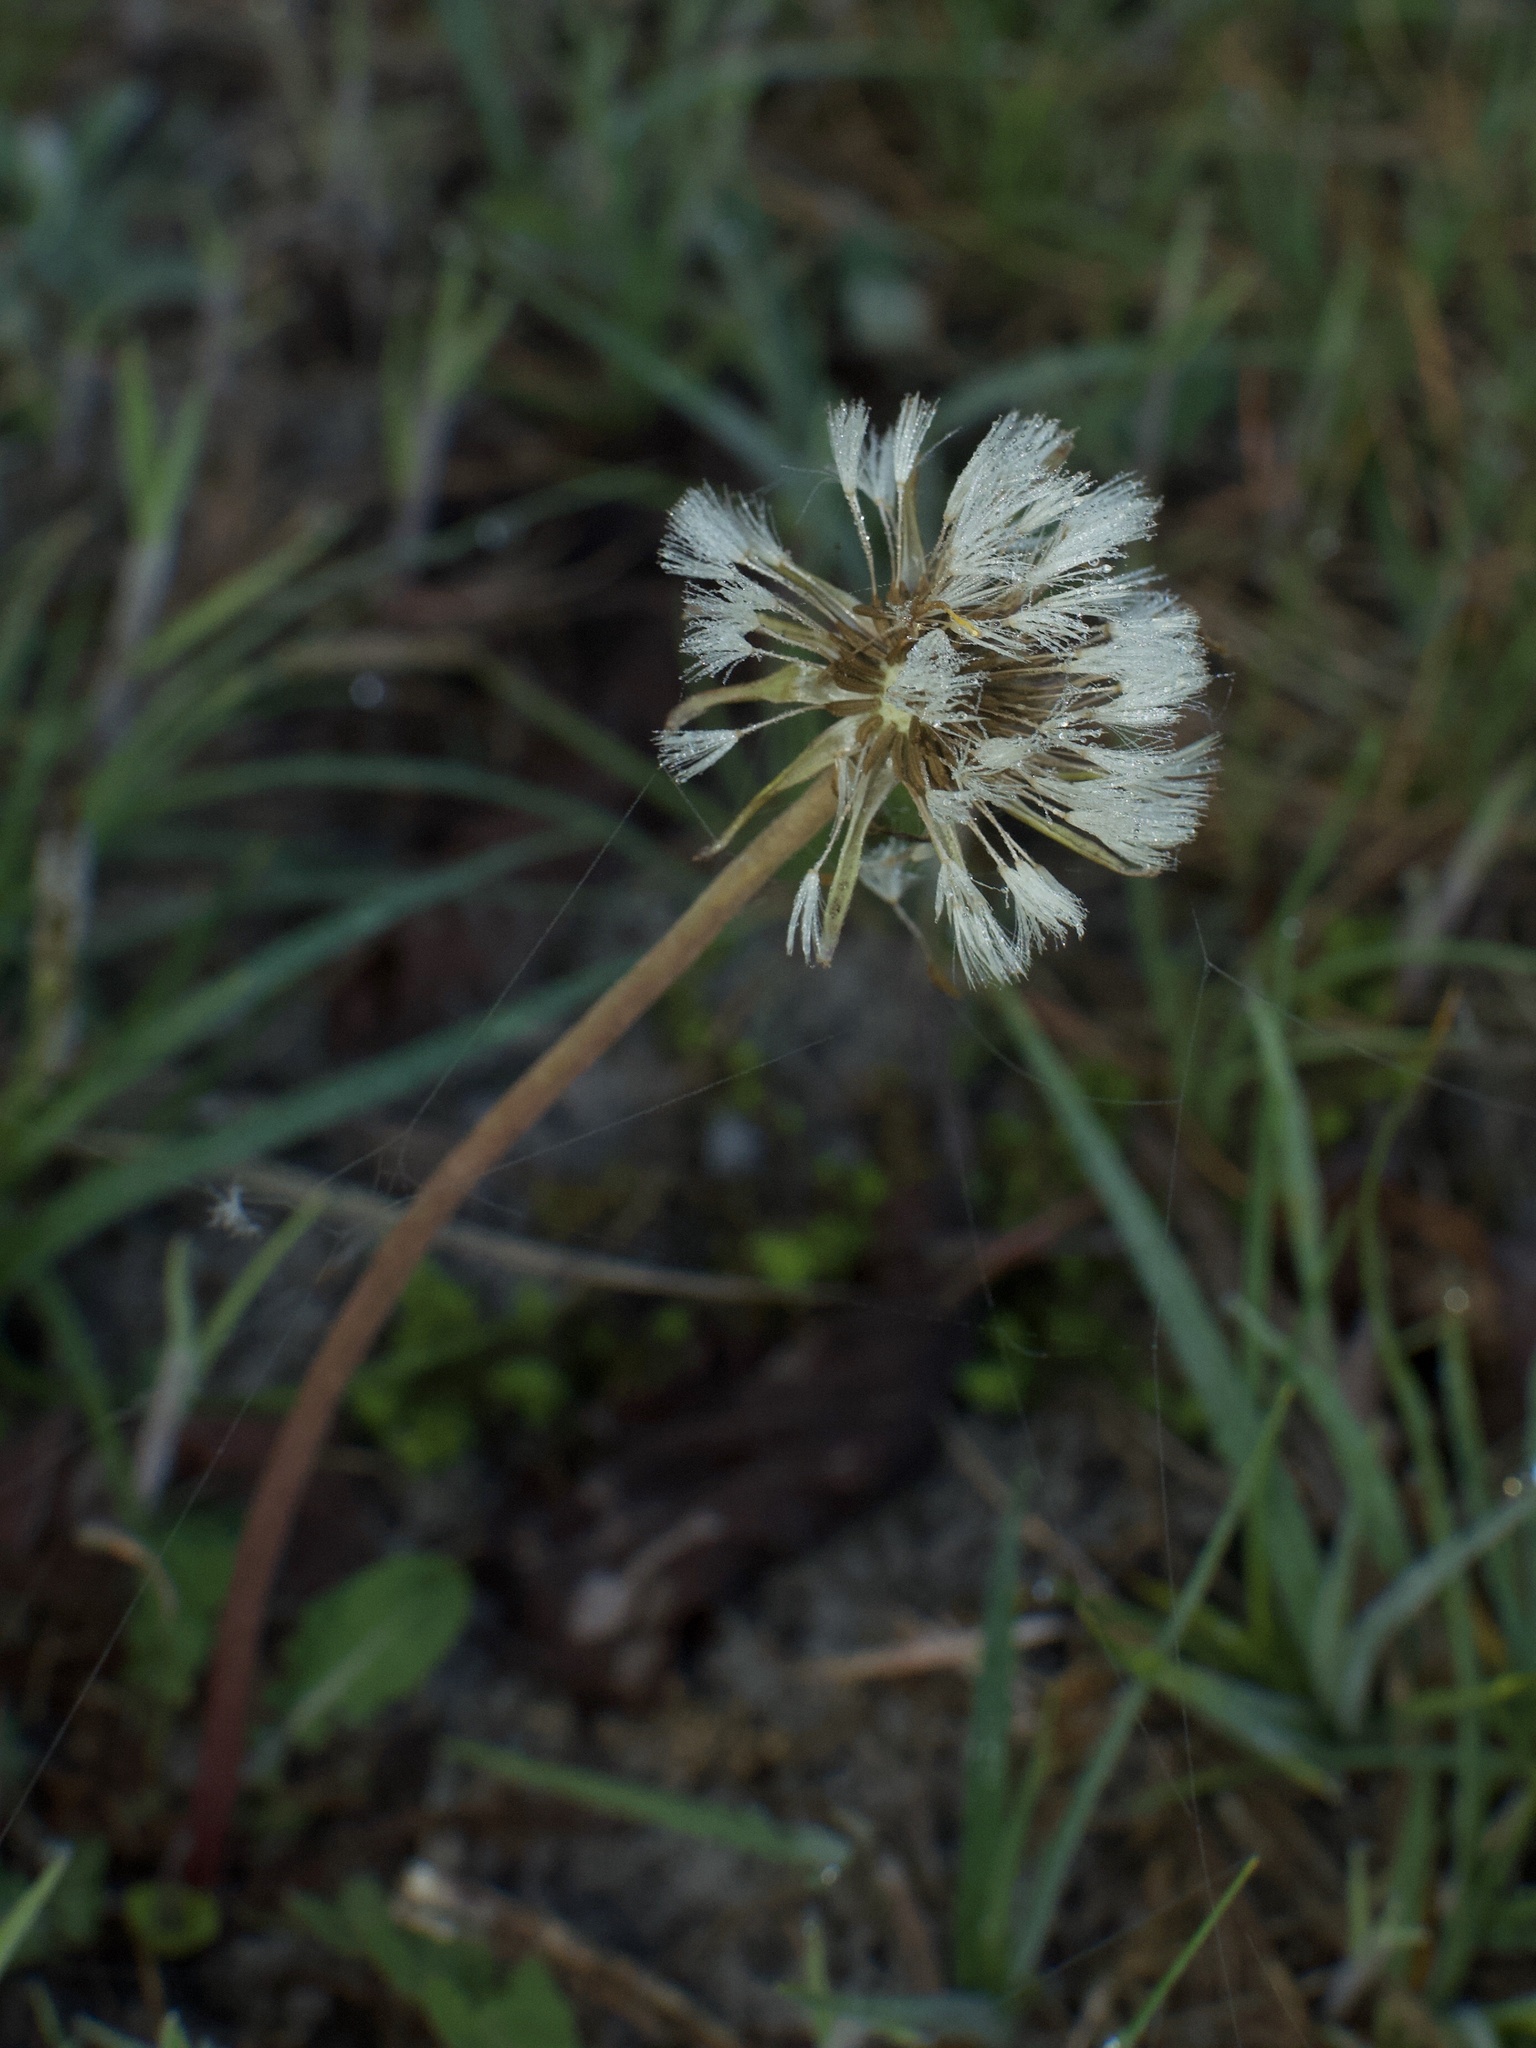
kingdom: Plantae
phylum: Tracheophyta
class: Magnoliopsida
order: Asterales
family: Asteraceae
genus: Taraxacum
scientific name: Taraxacum
